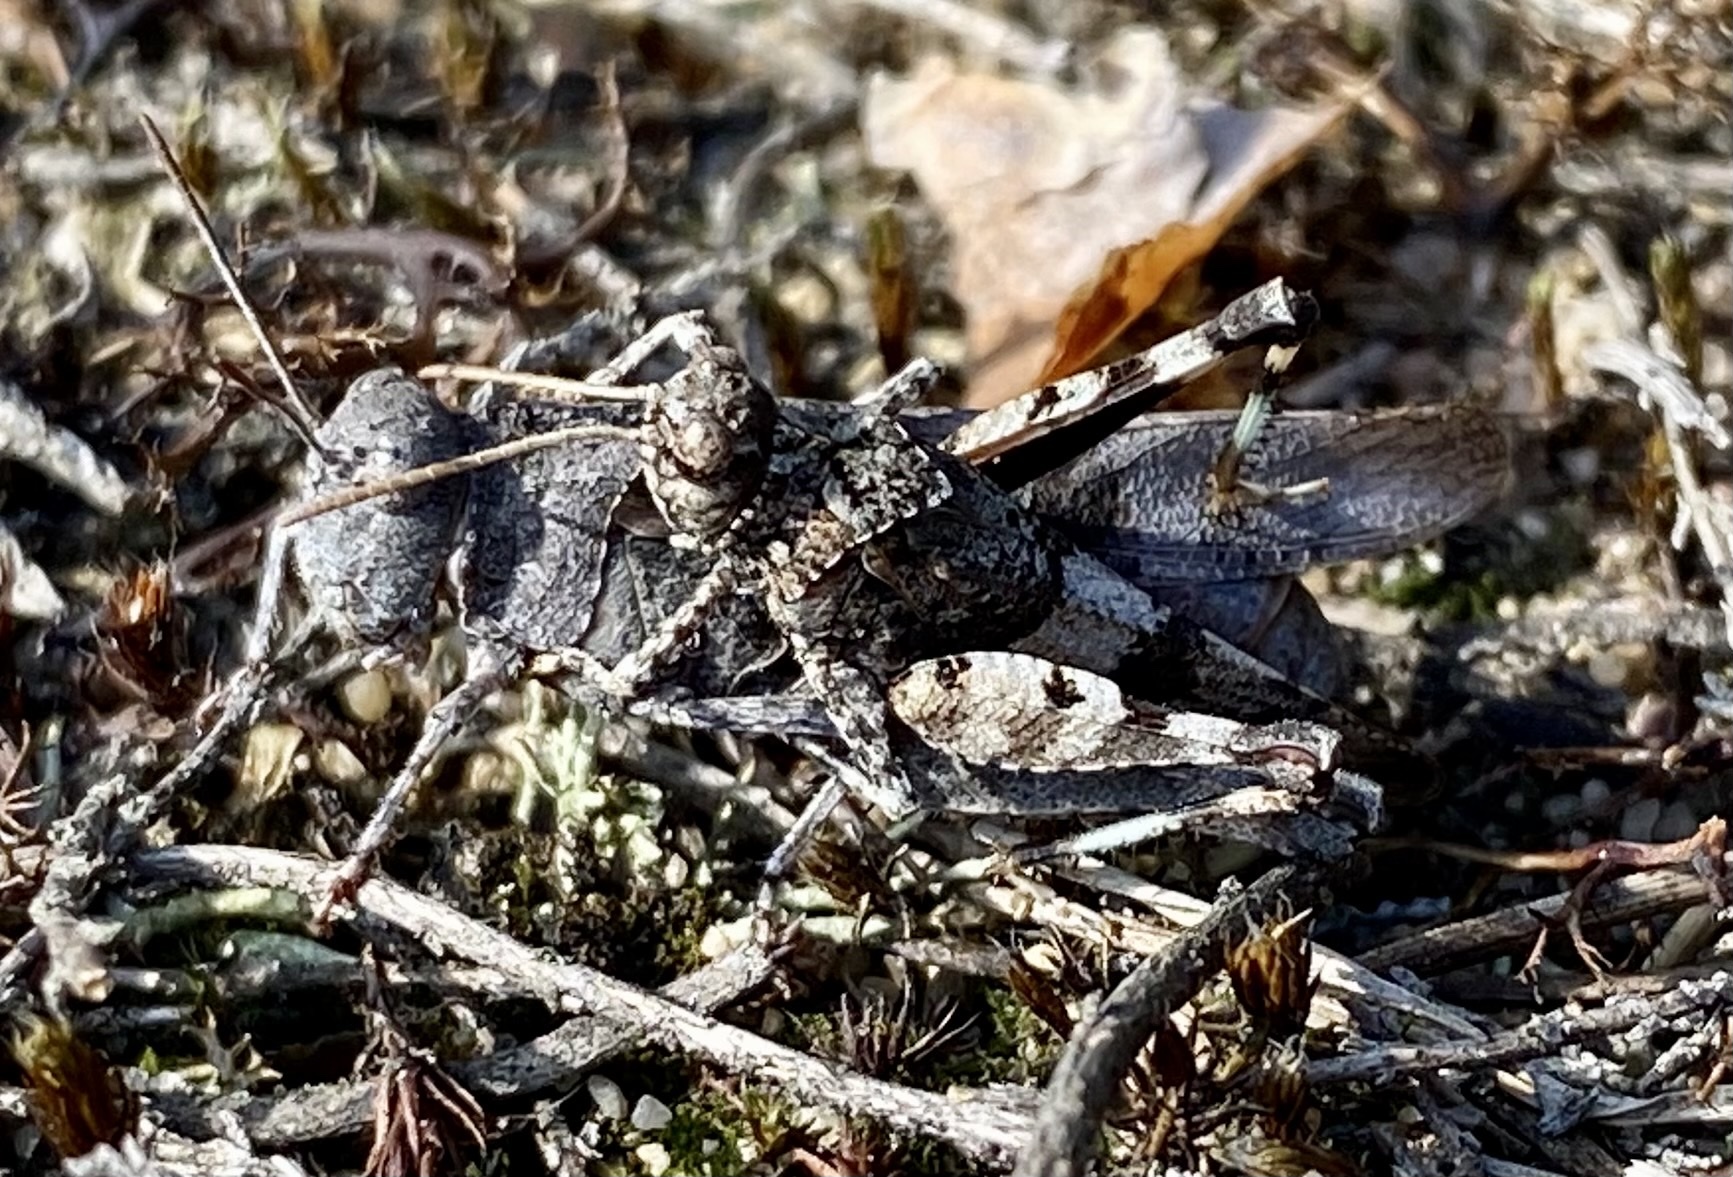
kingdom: Animalia
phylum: Arthropoda
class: Insecta
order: Orthoptera
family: Acrididae
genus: Oedipoda
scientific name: Oedipoda caerulescens
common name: Blue-winged grasshopper
